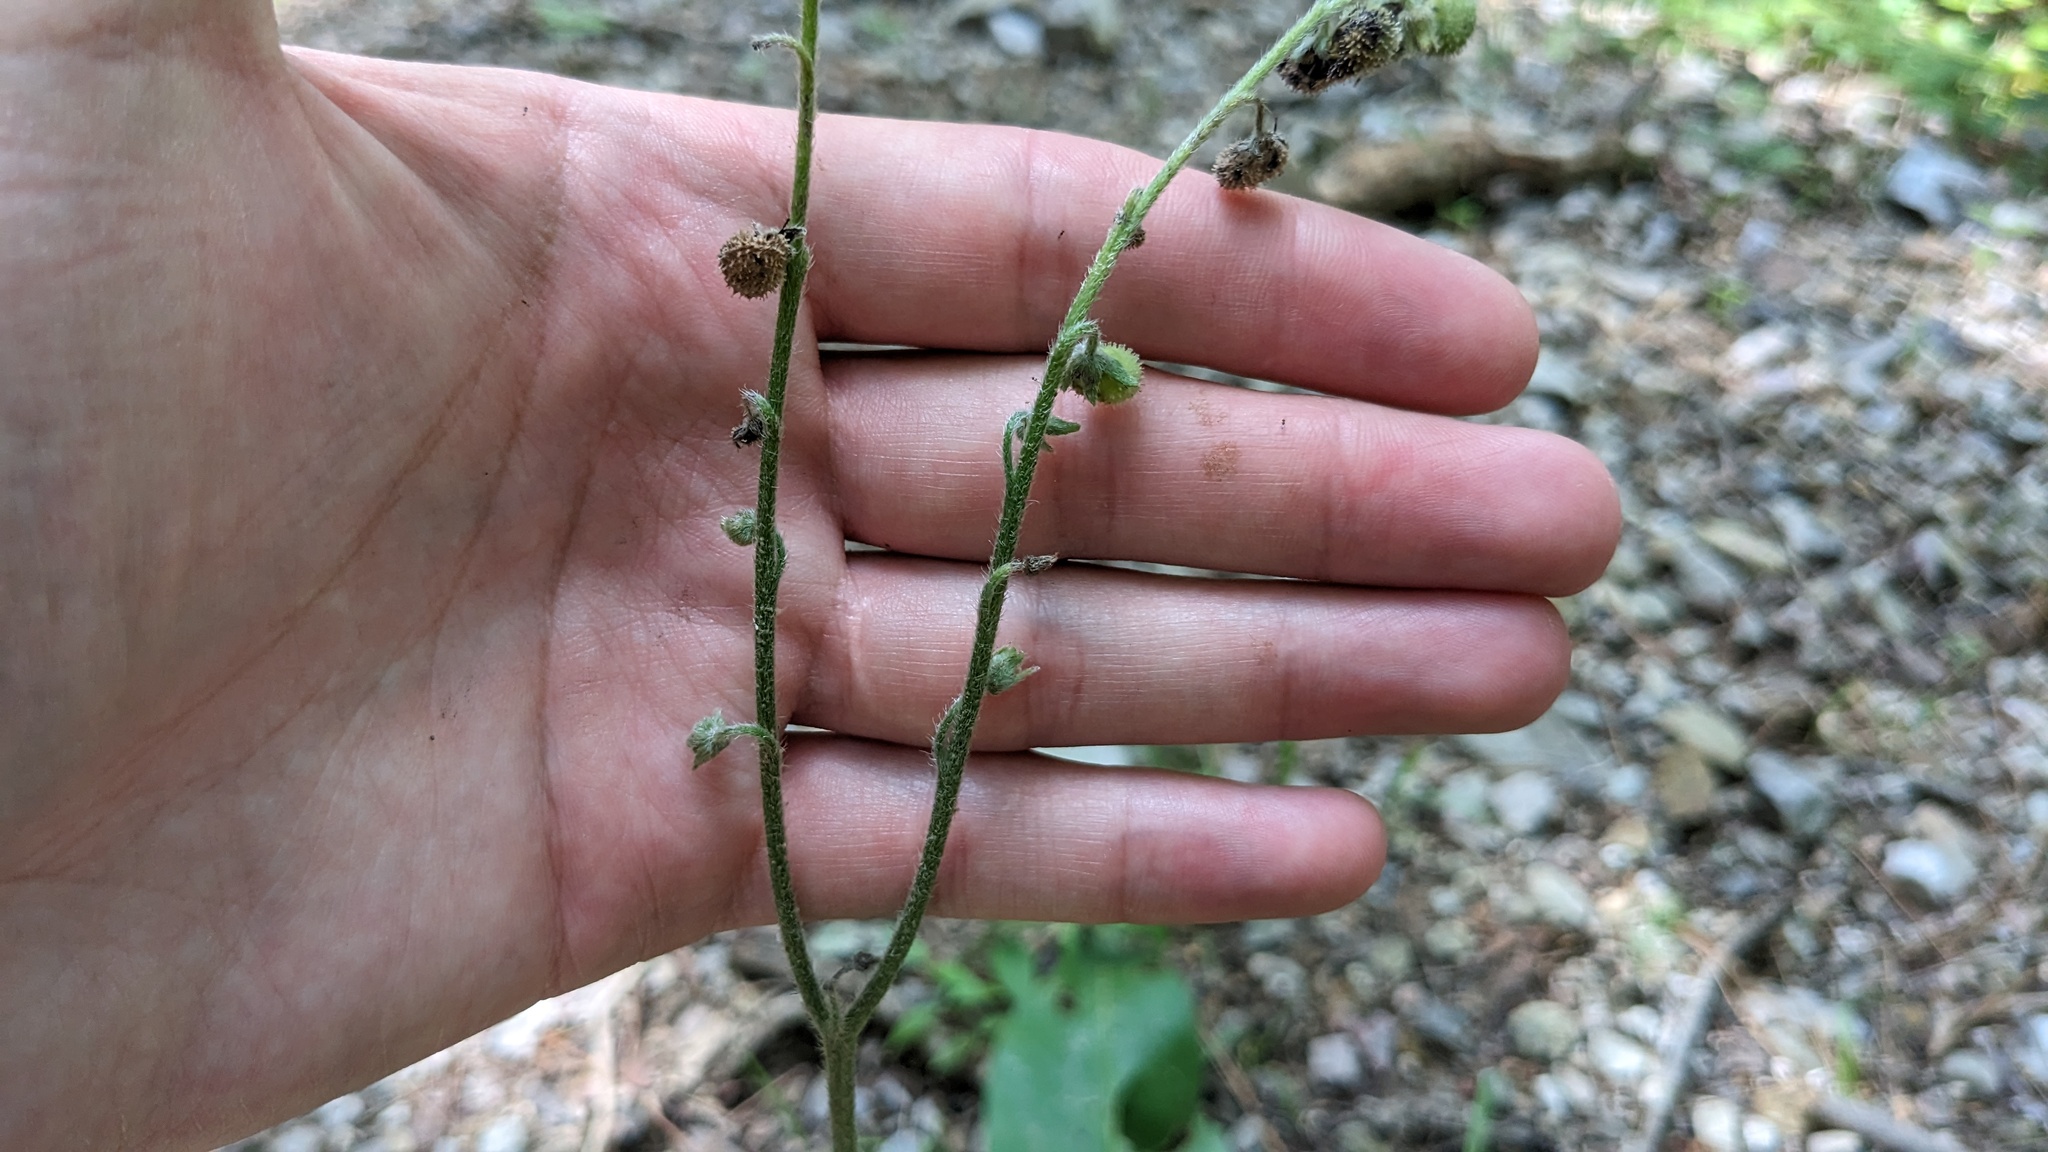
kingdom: Plantae
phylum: Tracheophyta
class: Magnoliopsida
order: Boraginales
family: Boraginaceae
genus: Andersonglossum
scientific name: Andersonglossum virginianum
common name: Wild comfrey
